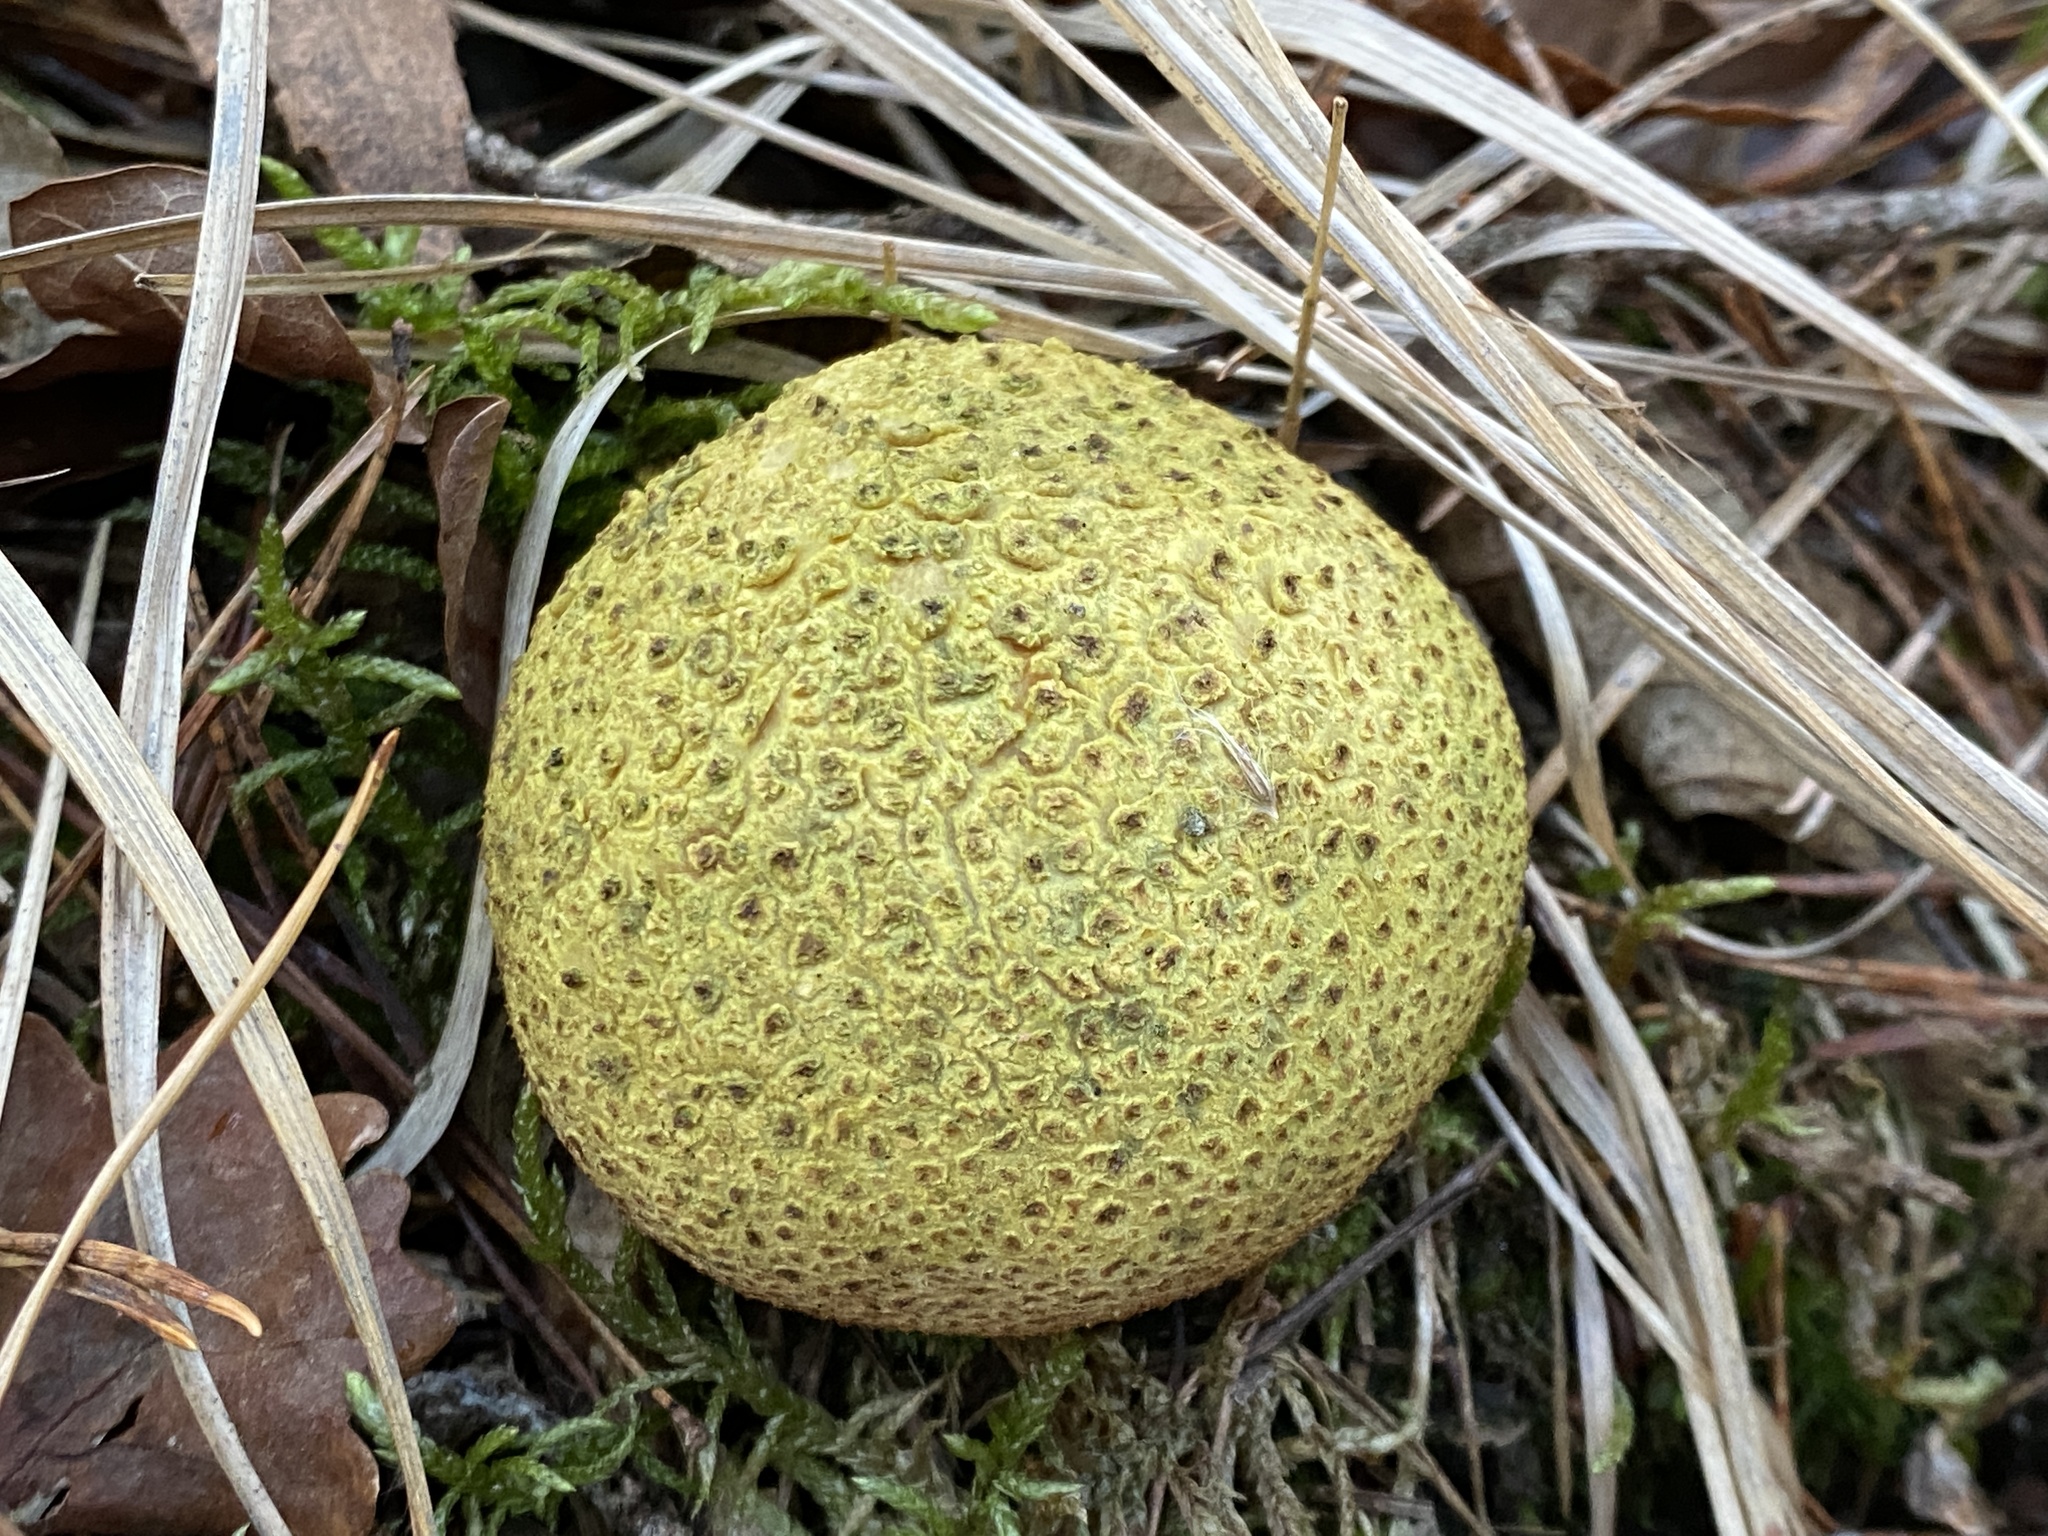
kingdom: Fungi
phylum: Basidiomycota
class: Agaricomycetes
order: Boletales
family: Sclerodermataceae
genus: Scleroderma
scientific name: Scleroderma citrinum
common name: Common earthball
